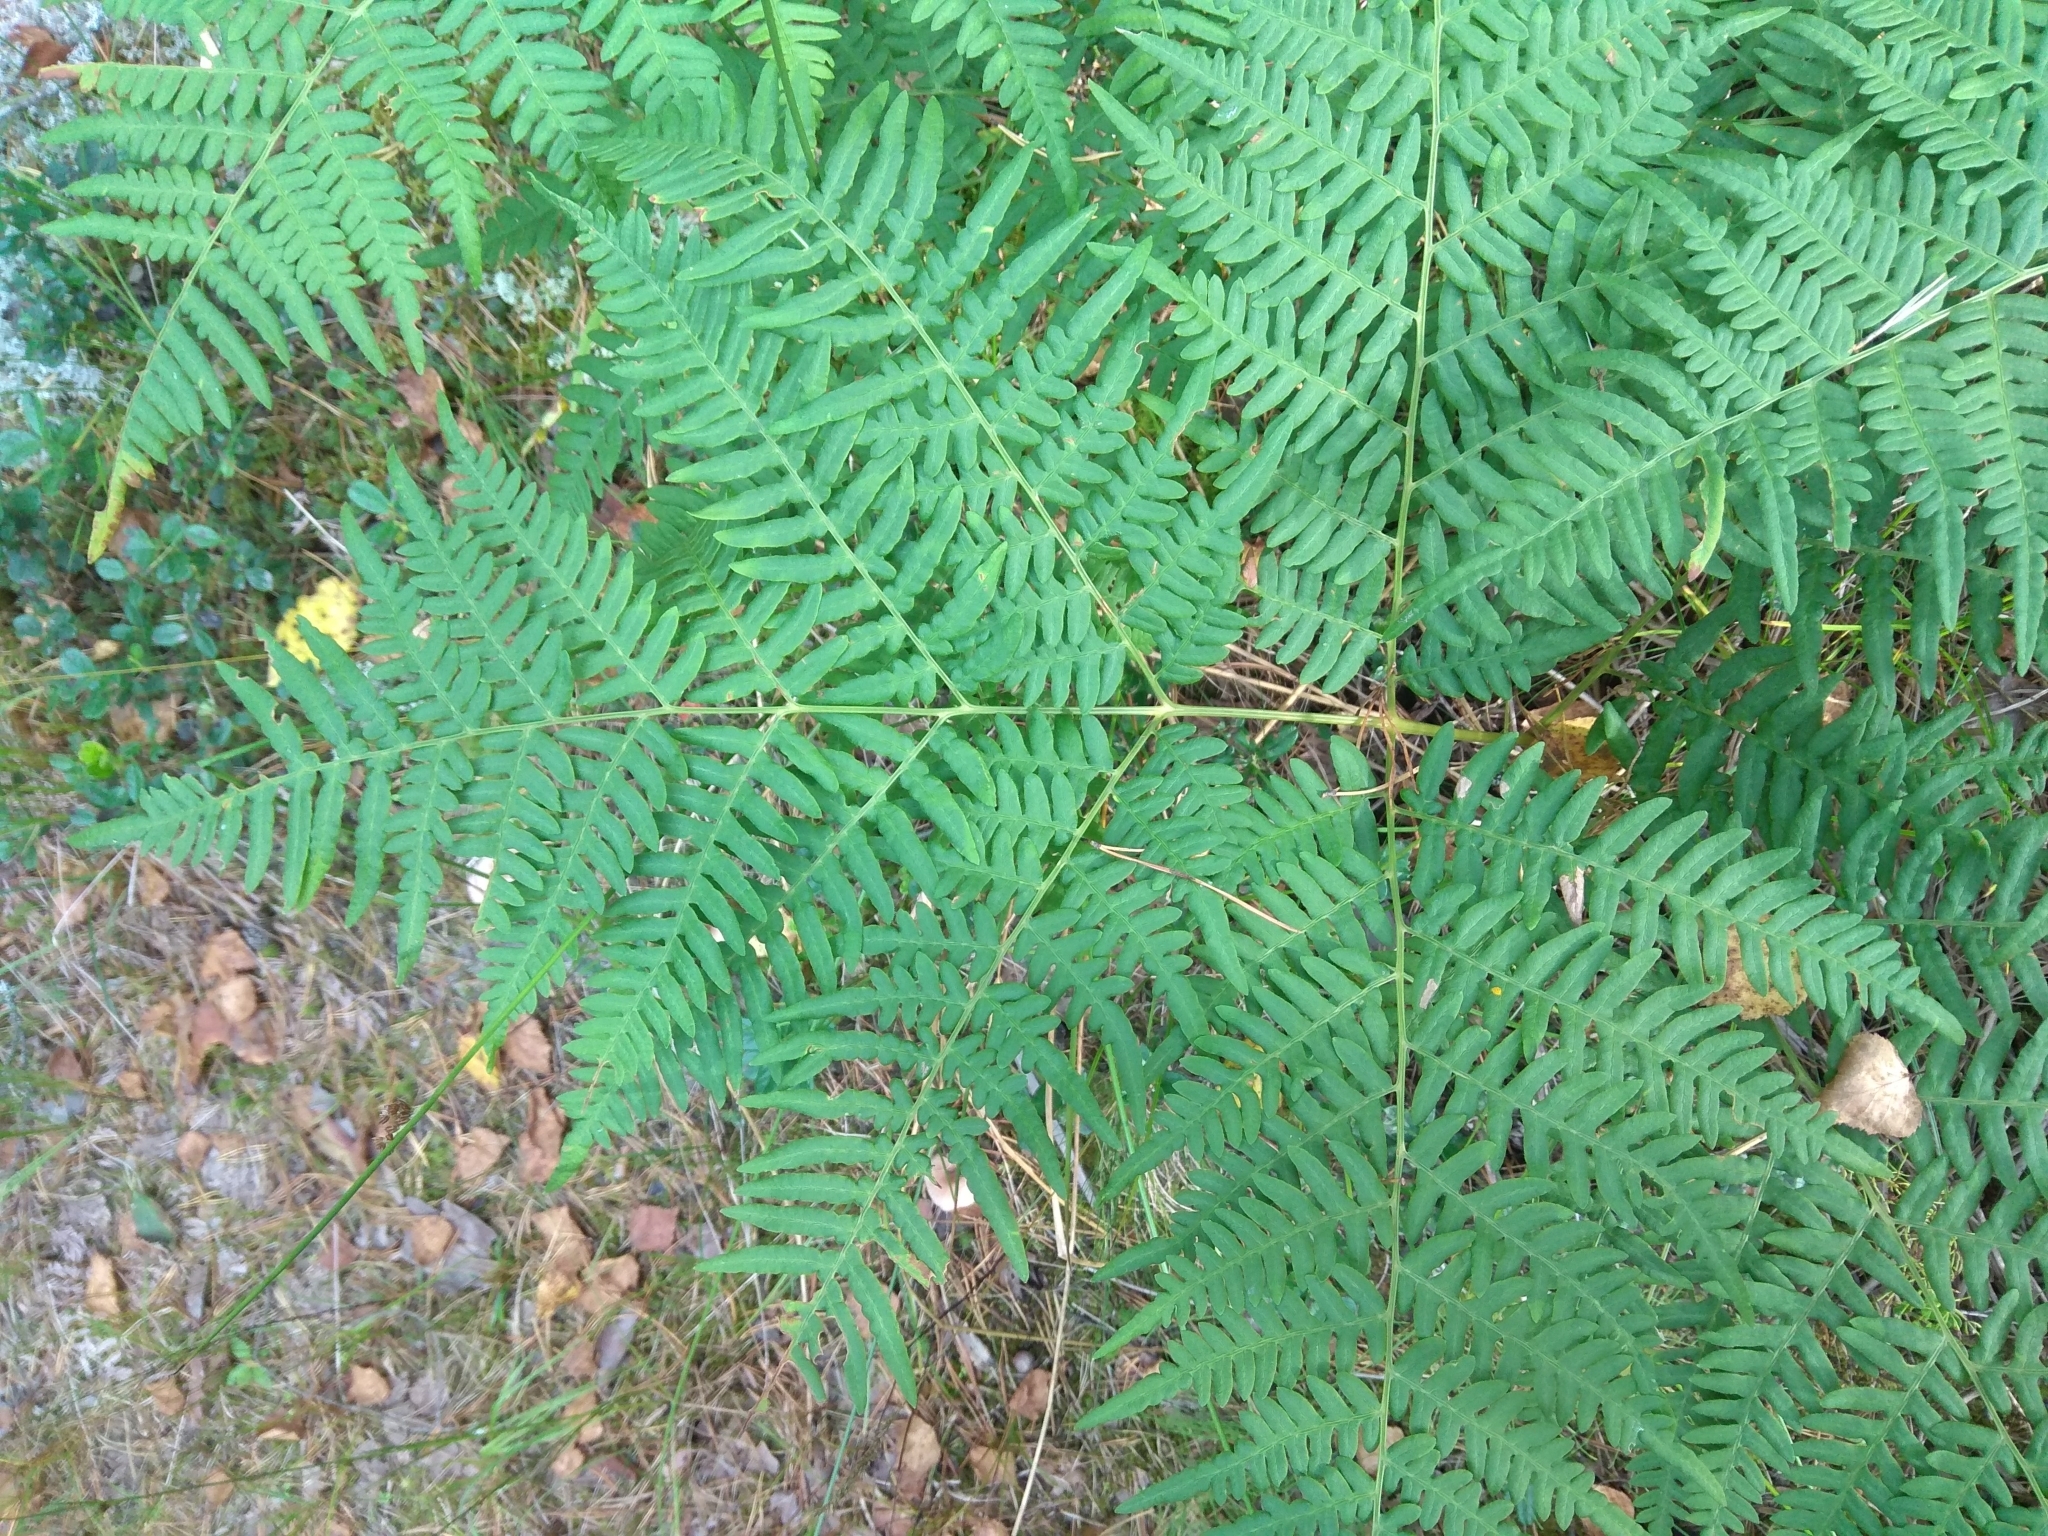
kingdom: Plantae
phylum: Tracheophyta
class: Polypodiopsida
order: Polypodiales
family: Dennstaedtiaceae
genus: Pteridium
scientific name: Pteridium aquilinum
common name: Bracken
